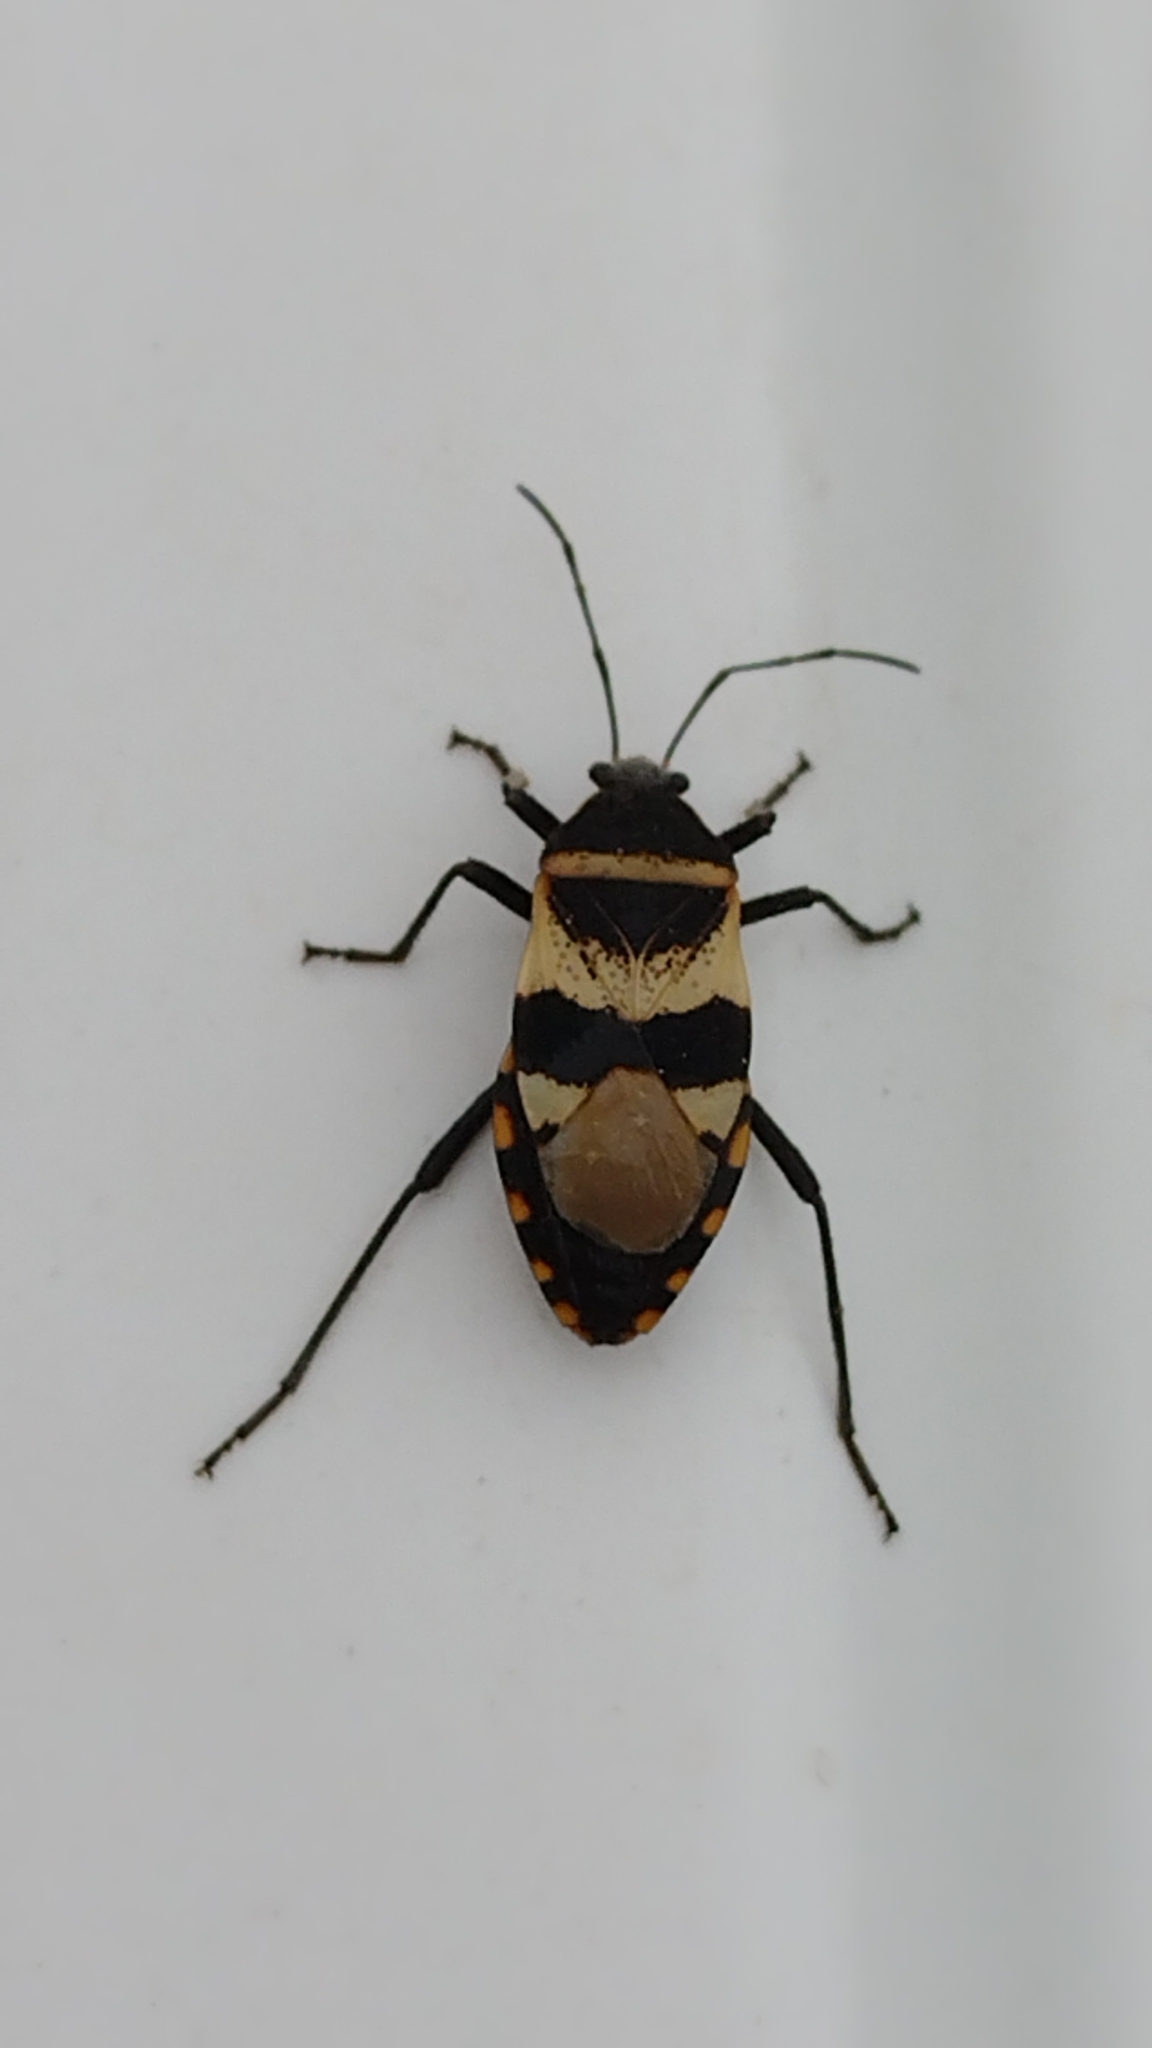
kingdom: Animalia
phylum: Arthropoda
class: Insecta
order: Hemiptera
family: Largidae
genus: Largus
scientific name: Largus fasciatus
